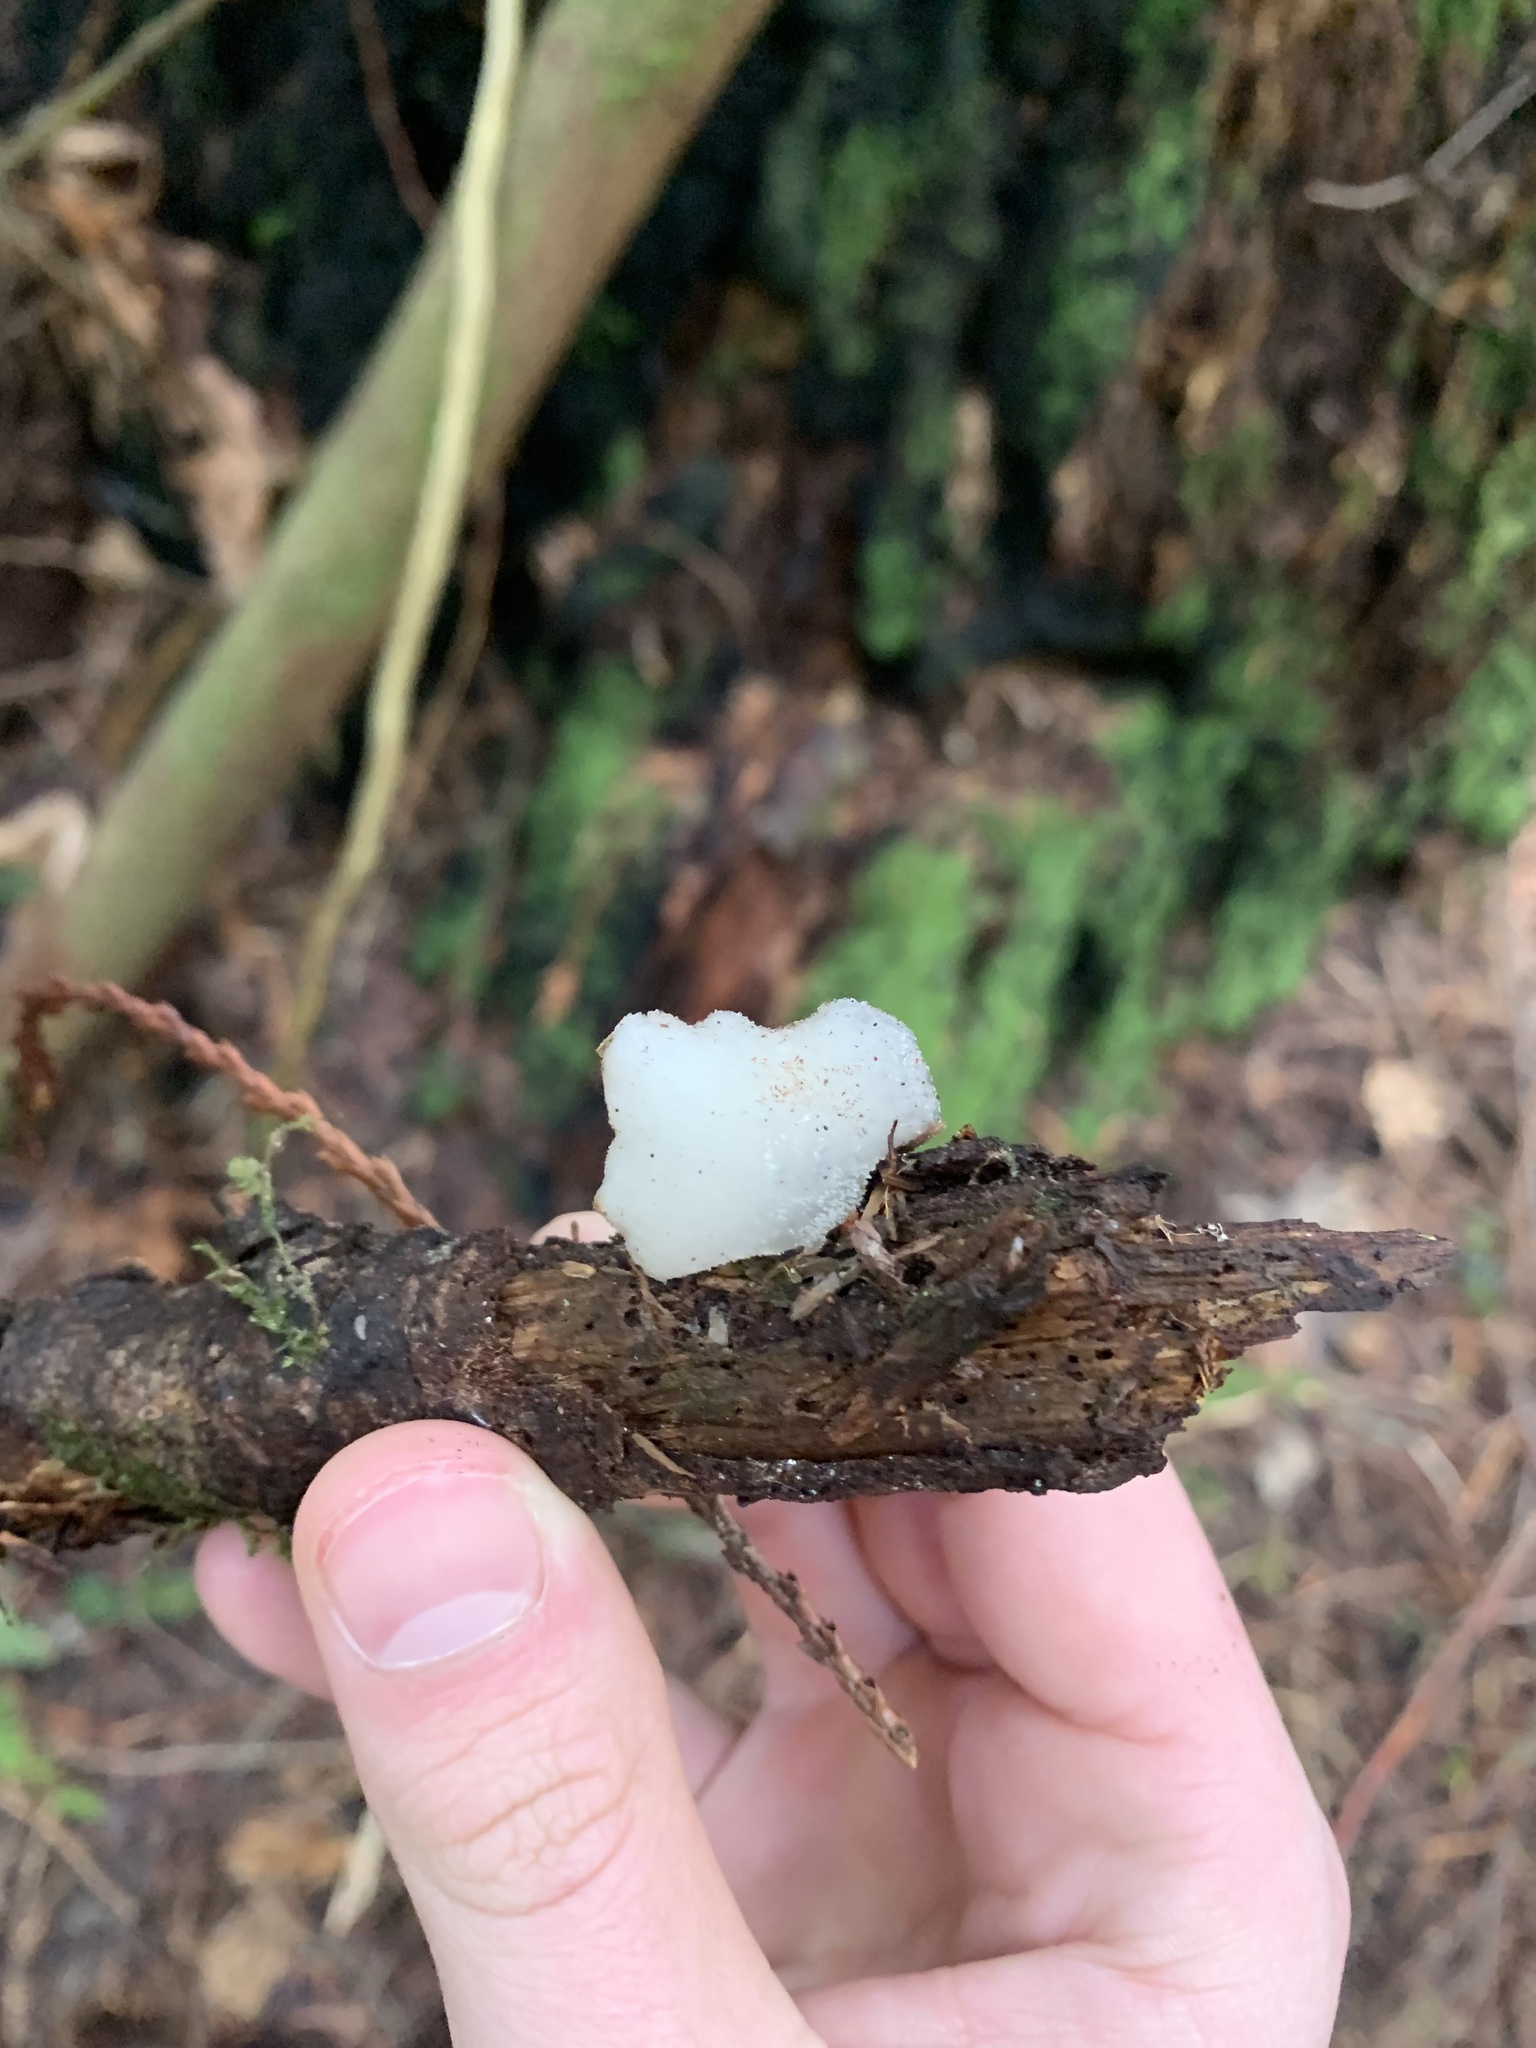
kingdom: Fungi
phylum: Basidiomycota
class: Agaricomycetes
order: Auriculariales
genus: Pseudohydnum
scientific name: Pseudohydnum gelatinosum
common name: Jelly tongue
